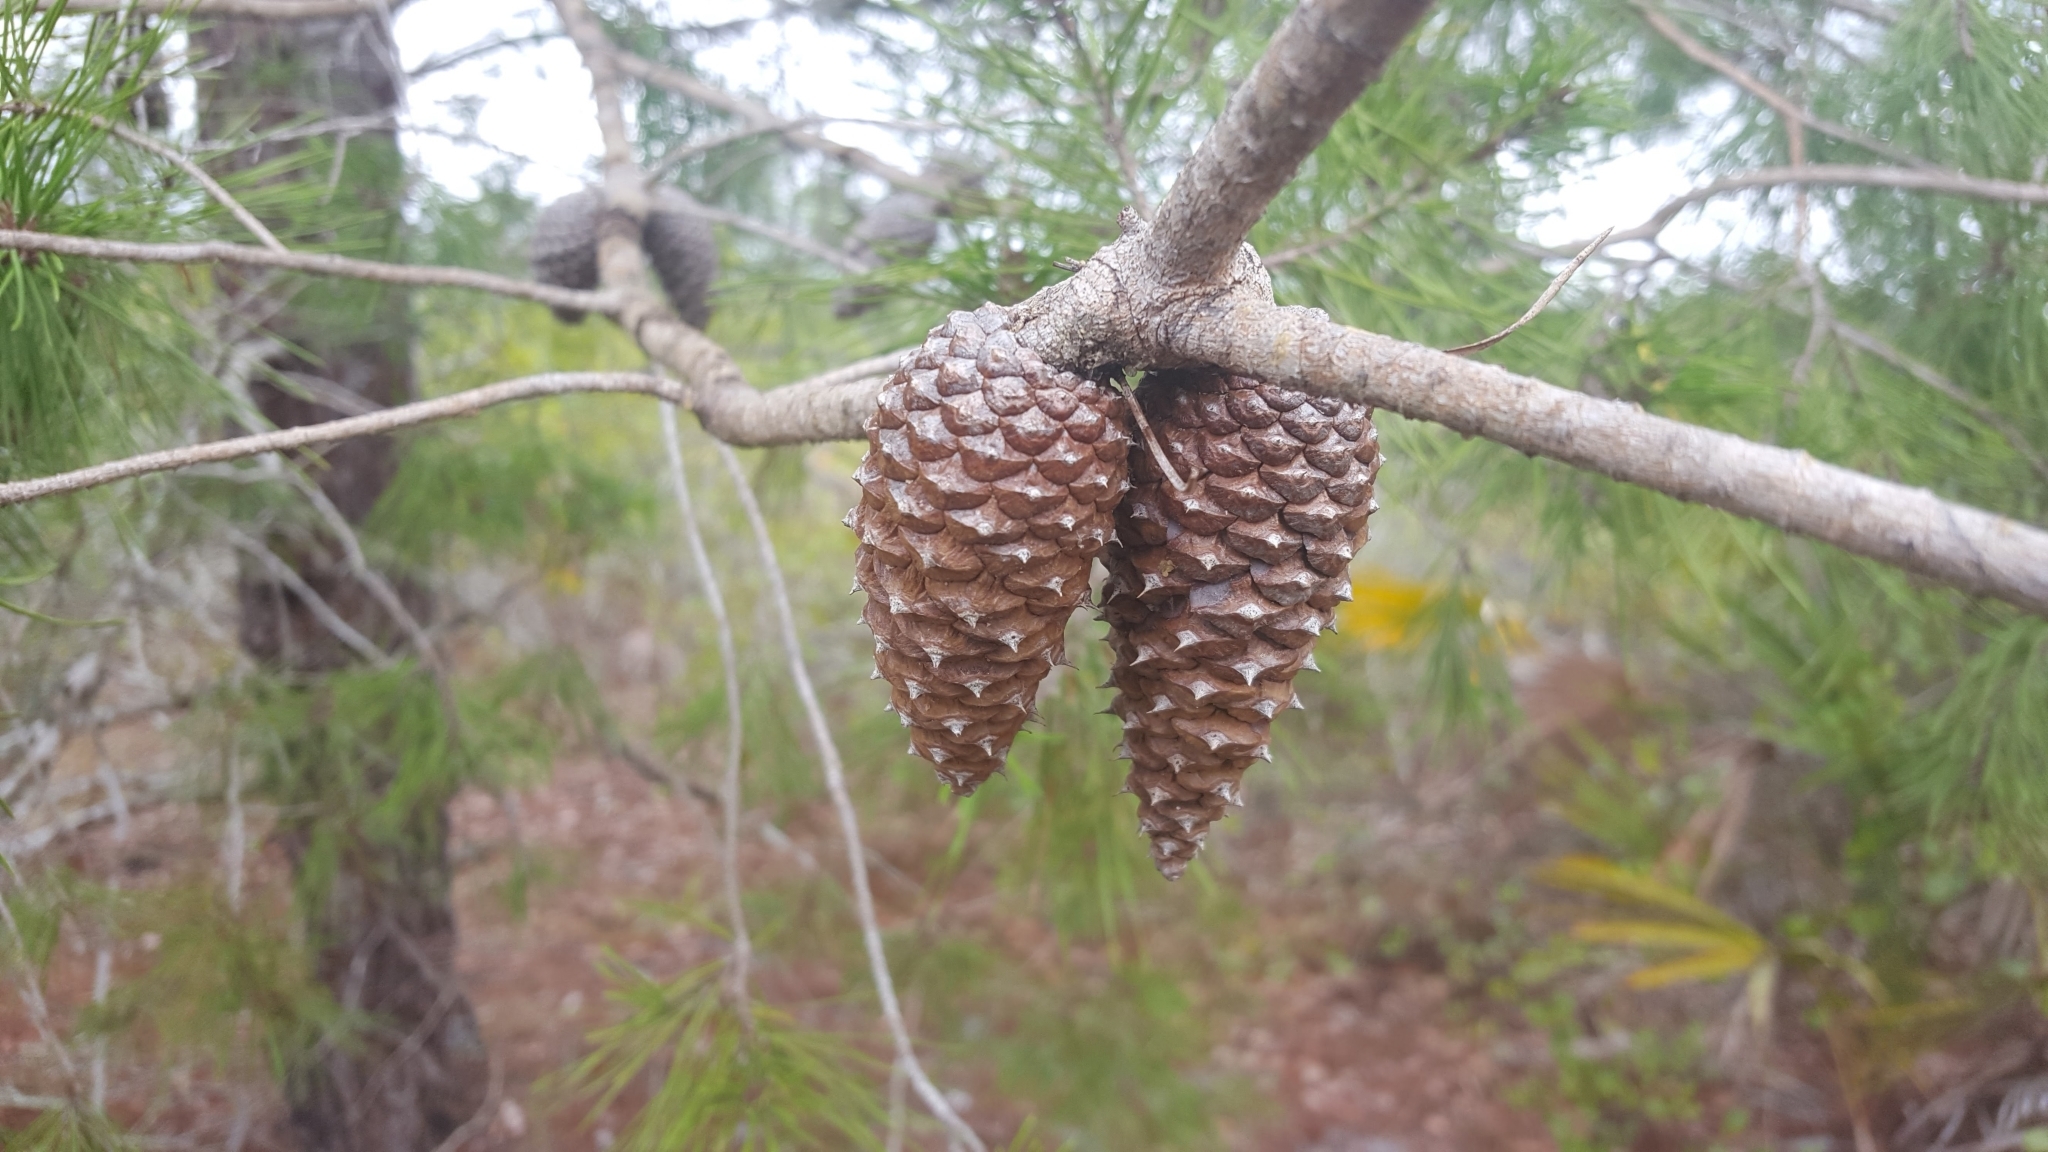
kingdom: Plantae
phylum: Tracheophyta
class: Pinopsida
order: Pinales
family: Pinaceae
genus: Pinus
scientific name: Pinus clausa
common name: Sand pine
